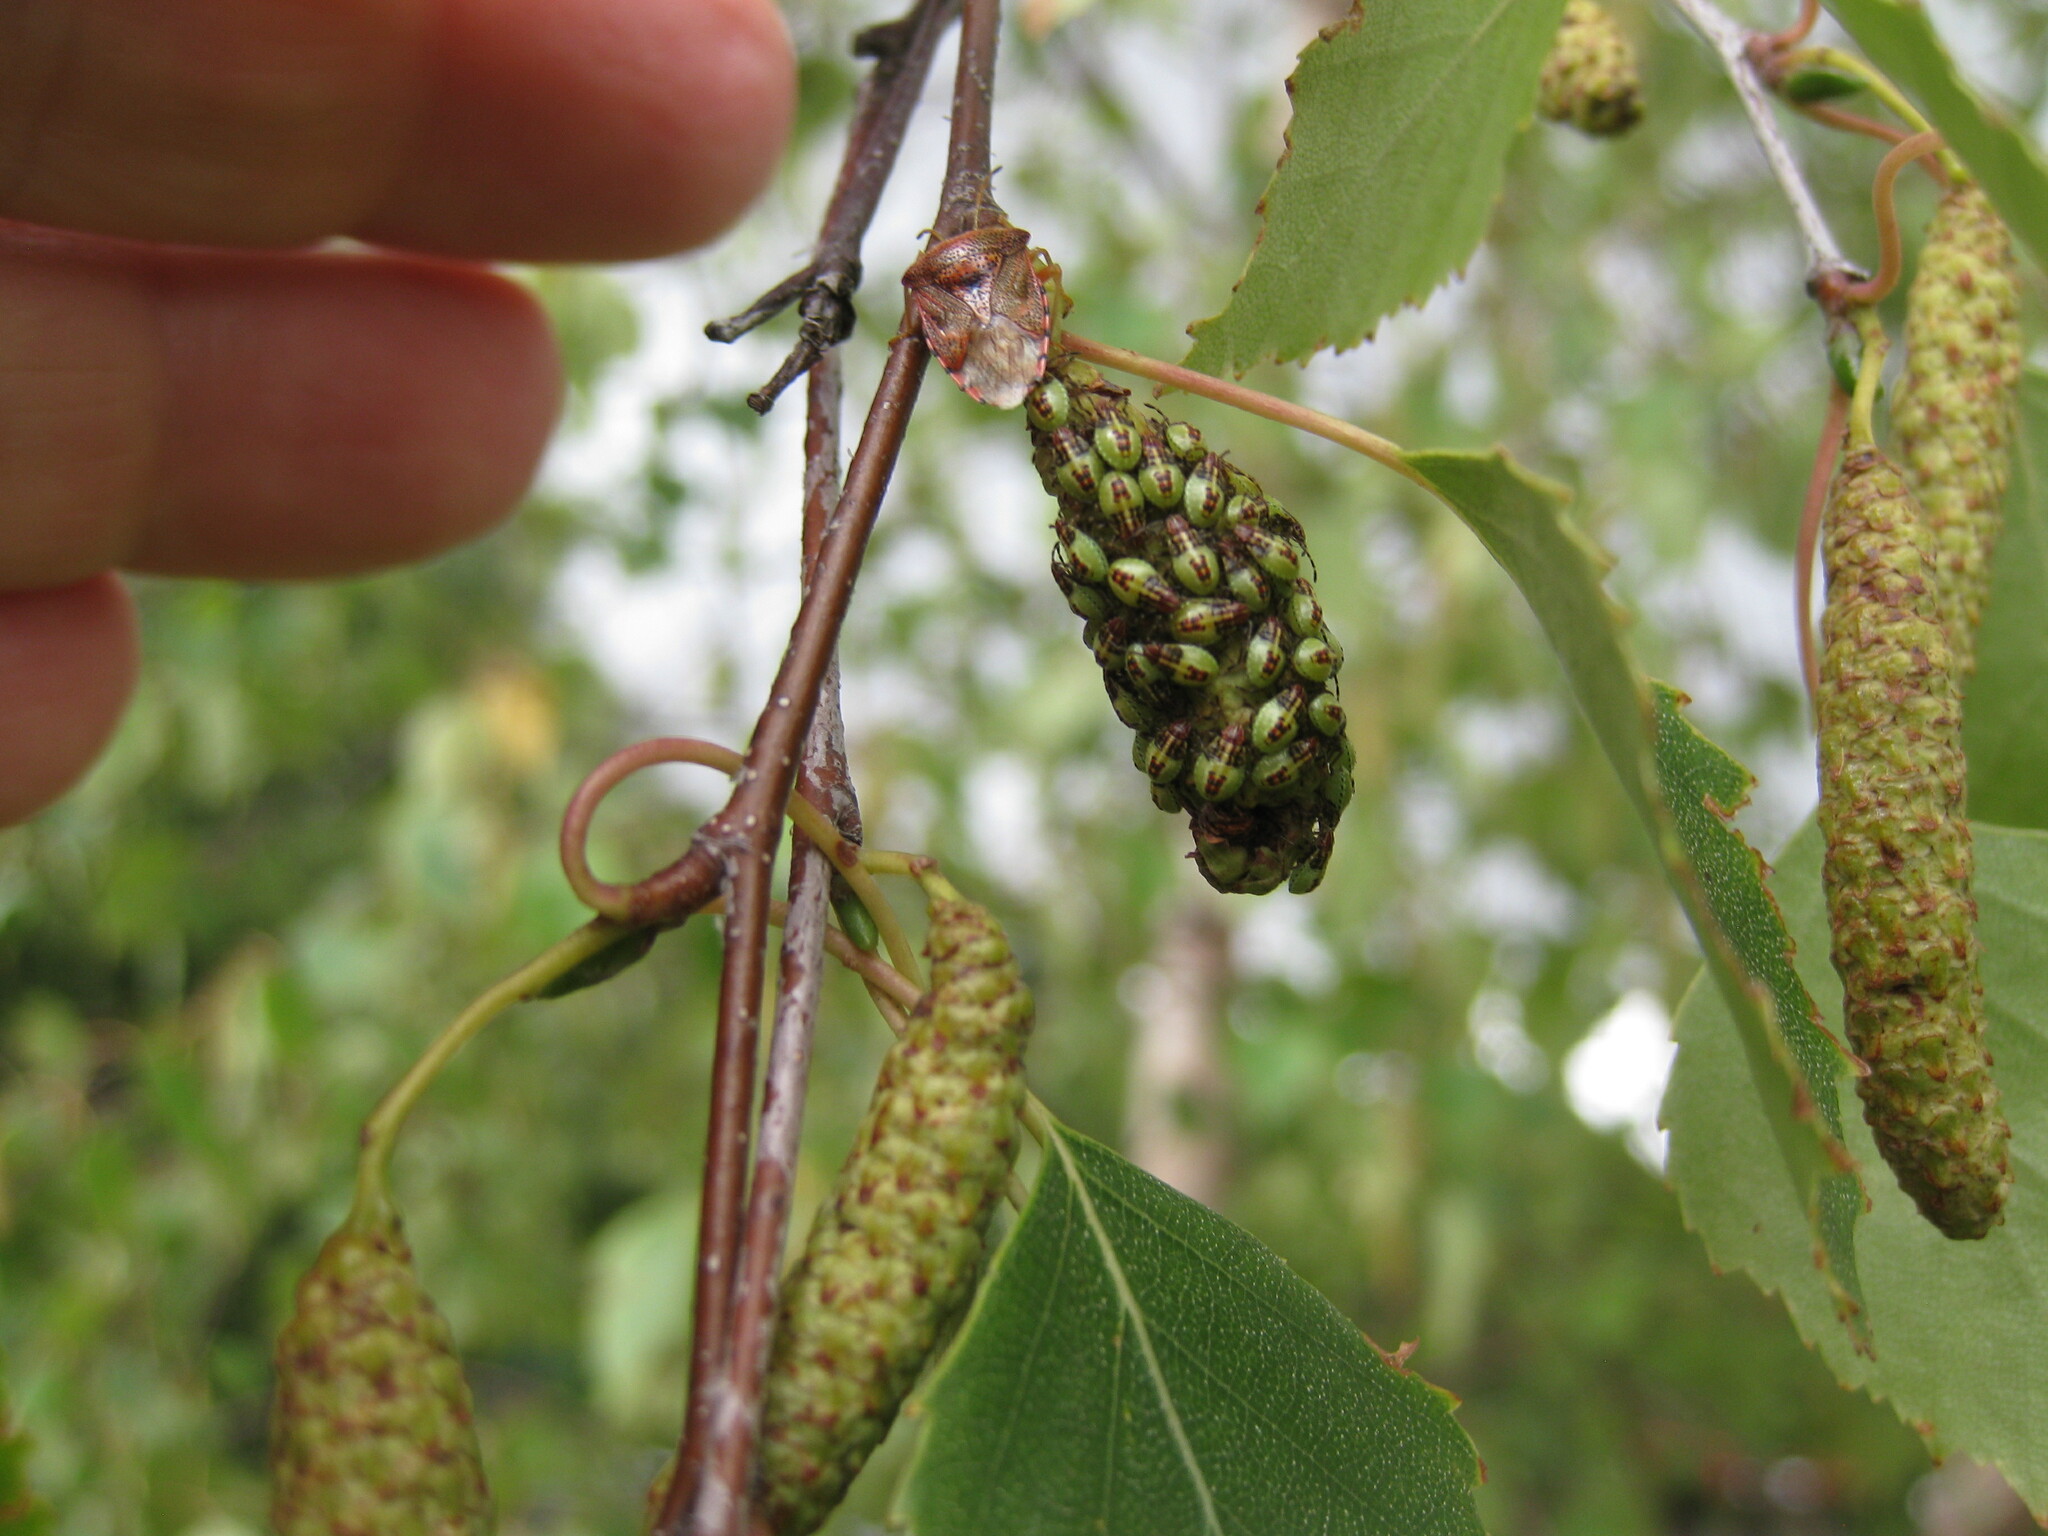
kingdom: Animalia
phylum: Arthropoda
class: Insecta
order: Hemiptera
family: Acanthosomatidae
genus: Elasmucha
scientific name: Elasmucha grisea
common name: Parent bug
